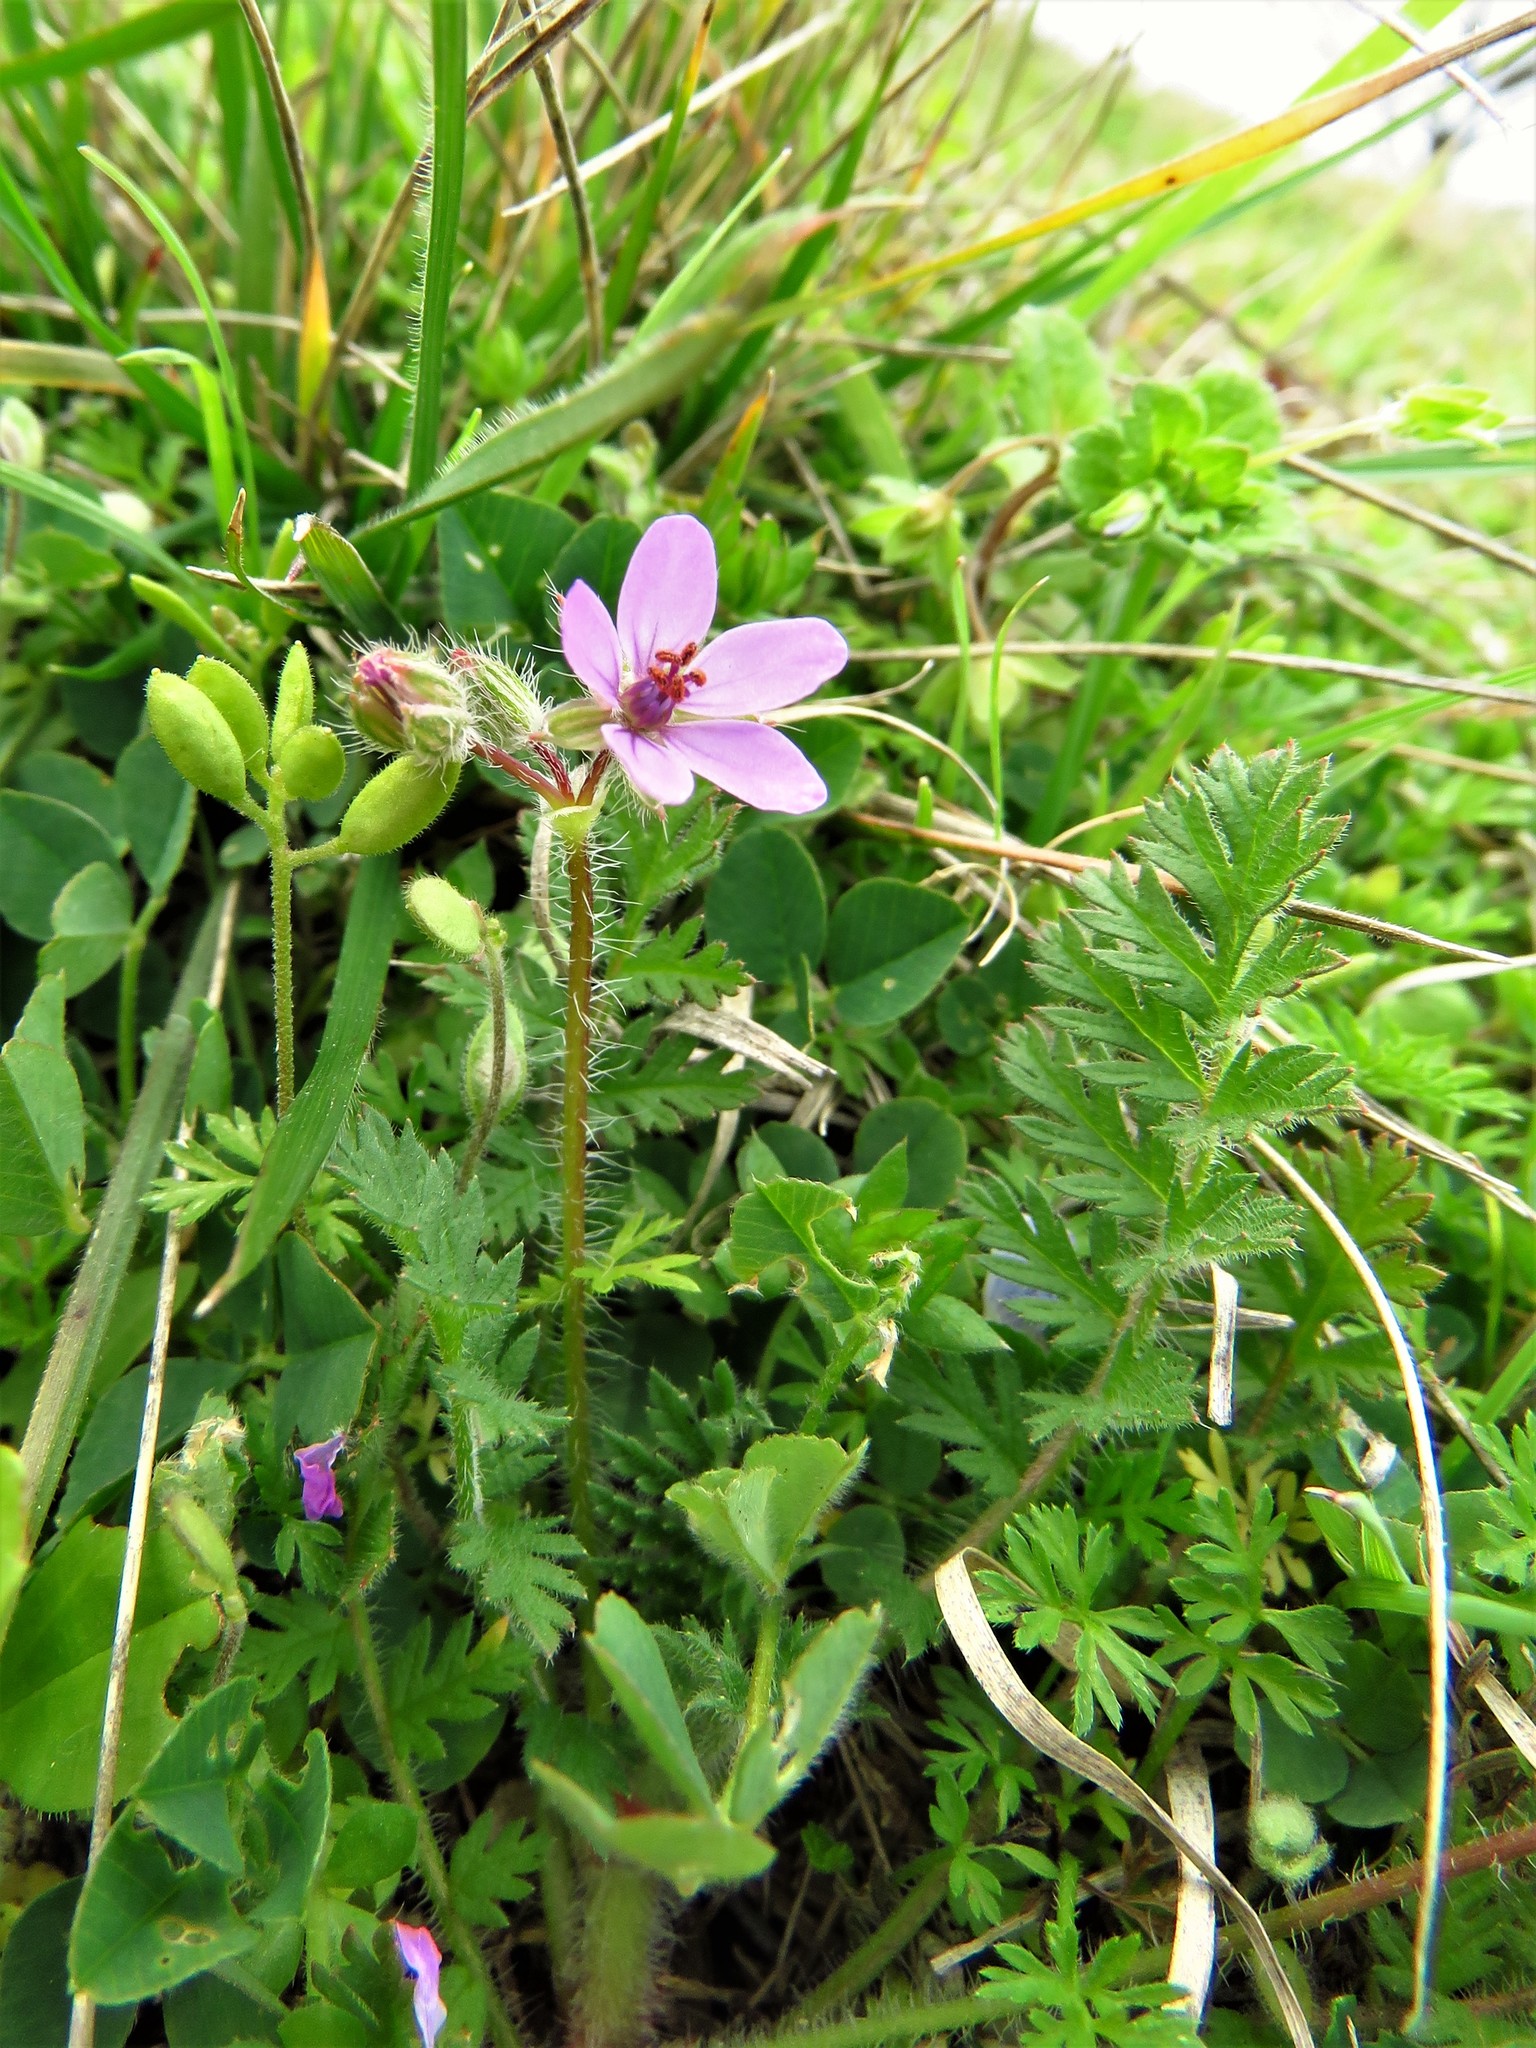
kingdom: Plantae
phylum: Tracheophyta
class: Magnoliopsida
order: Geraniales
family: Geraniaceae
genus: Erodium
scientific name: Erodium cicutarium
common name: Common stork's-bill
